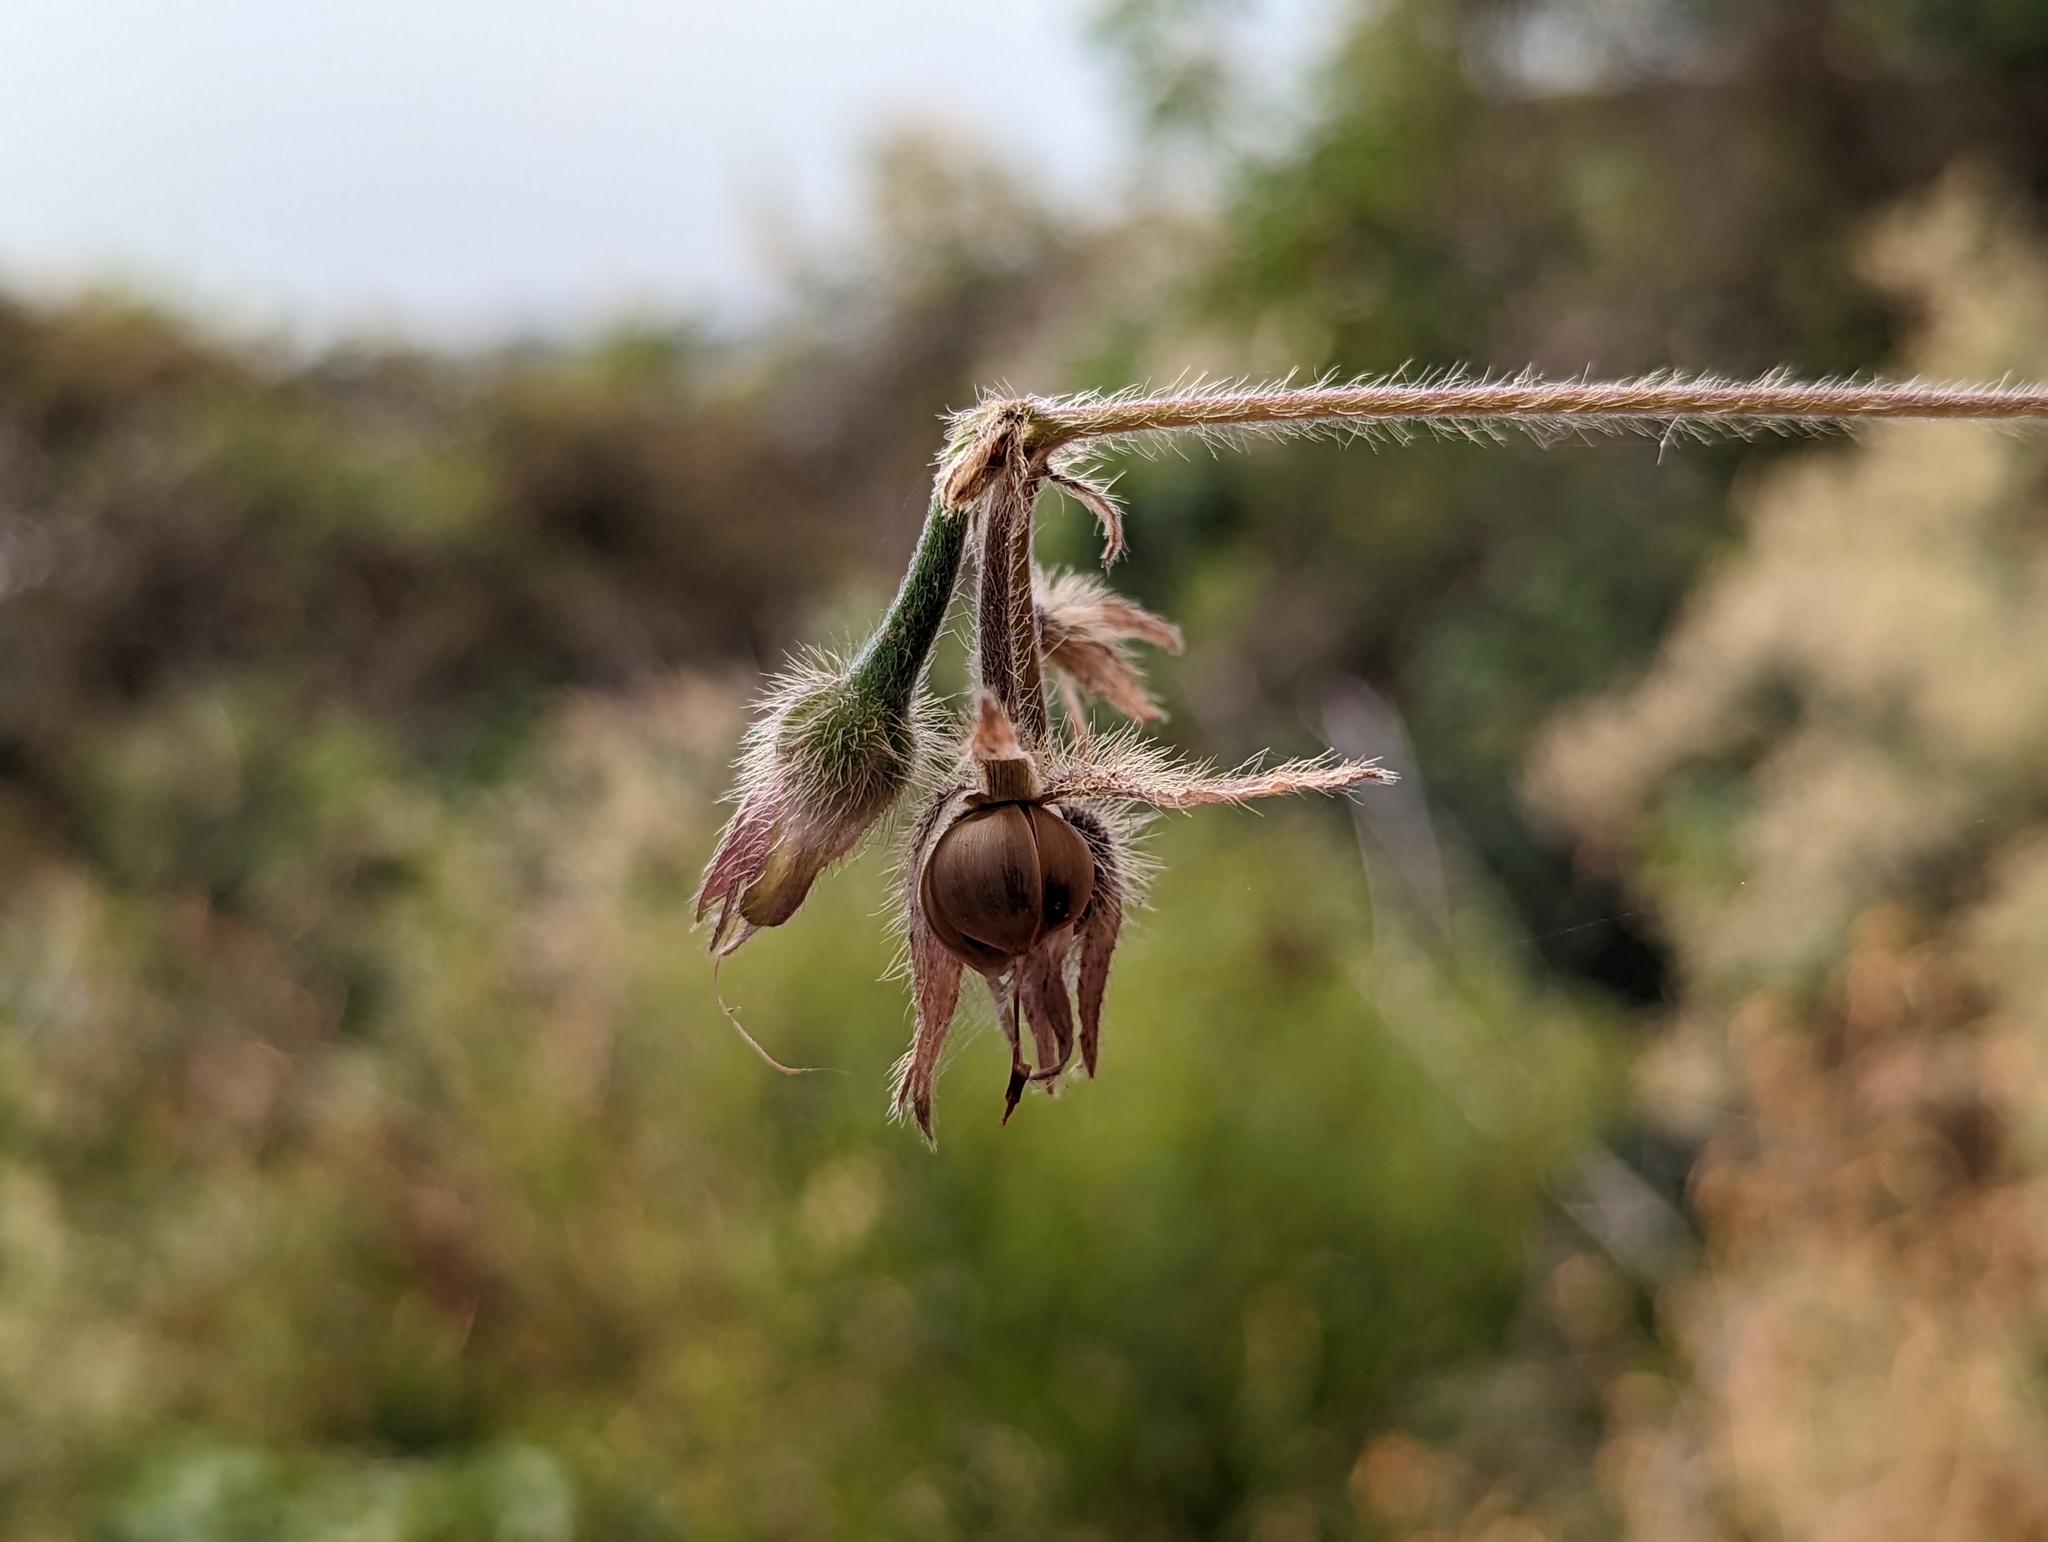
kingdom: Plantae
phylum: Tracheophyta
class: Magnoliopsida
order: Solanales
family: Convolvulaceae
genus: Ipomoea
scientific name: Ipomoea purpurea
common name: Common morning-glory
